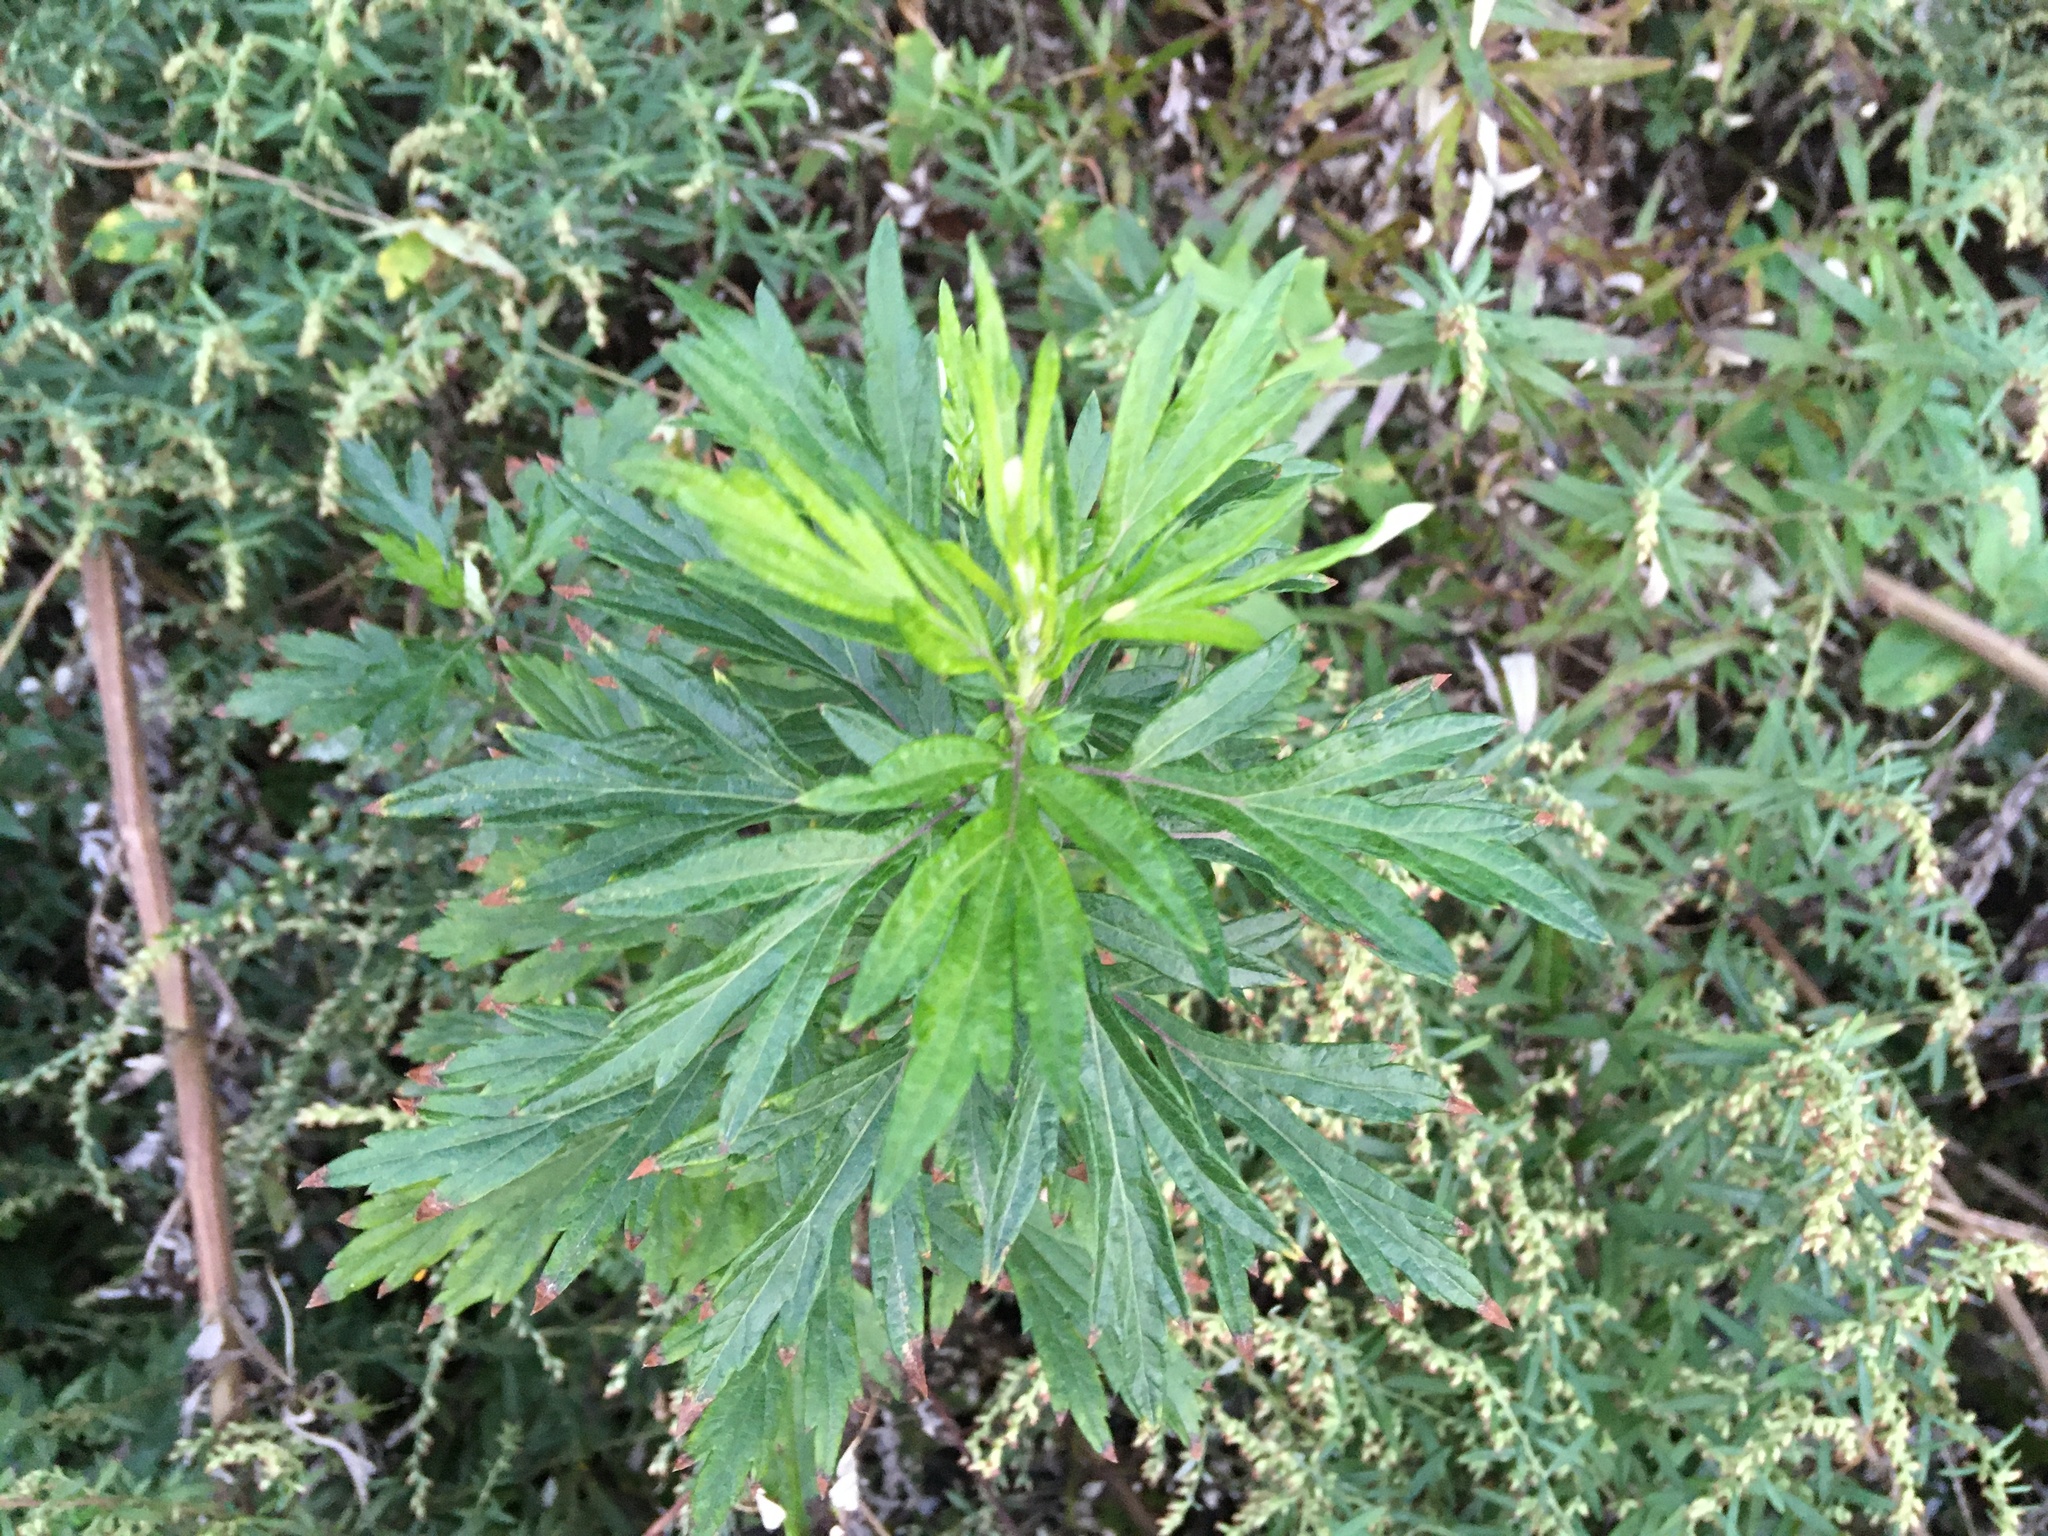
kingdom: Plantae
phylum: Tracheophyta
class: Magnoliopsida
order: Asterales
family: Asteraceae
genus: Artemisia
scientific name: Artemisia vulgaris
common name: Mugwort
